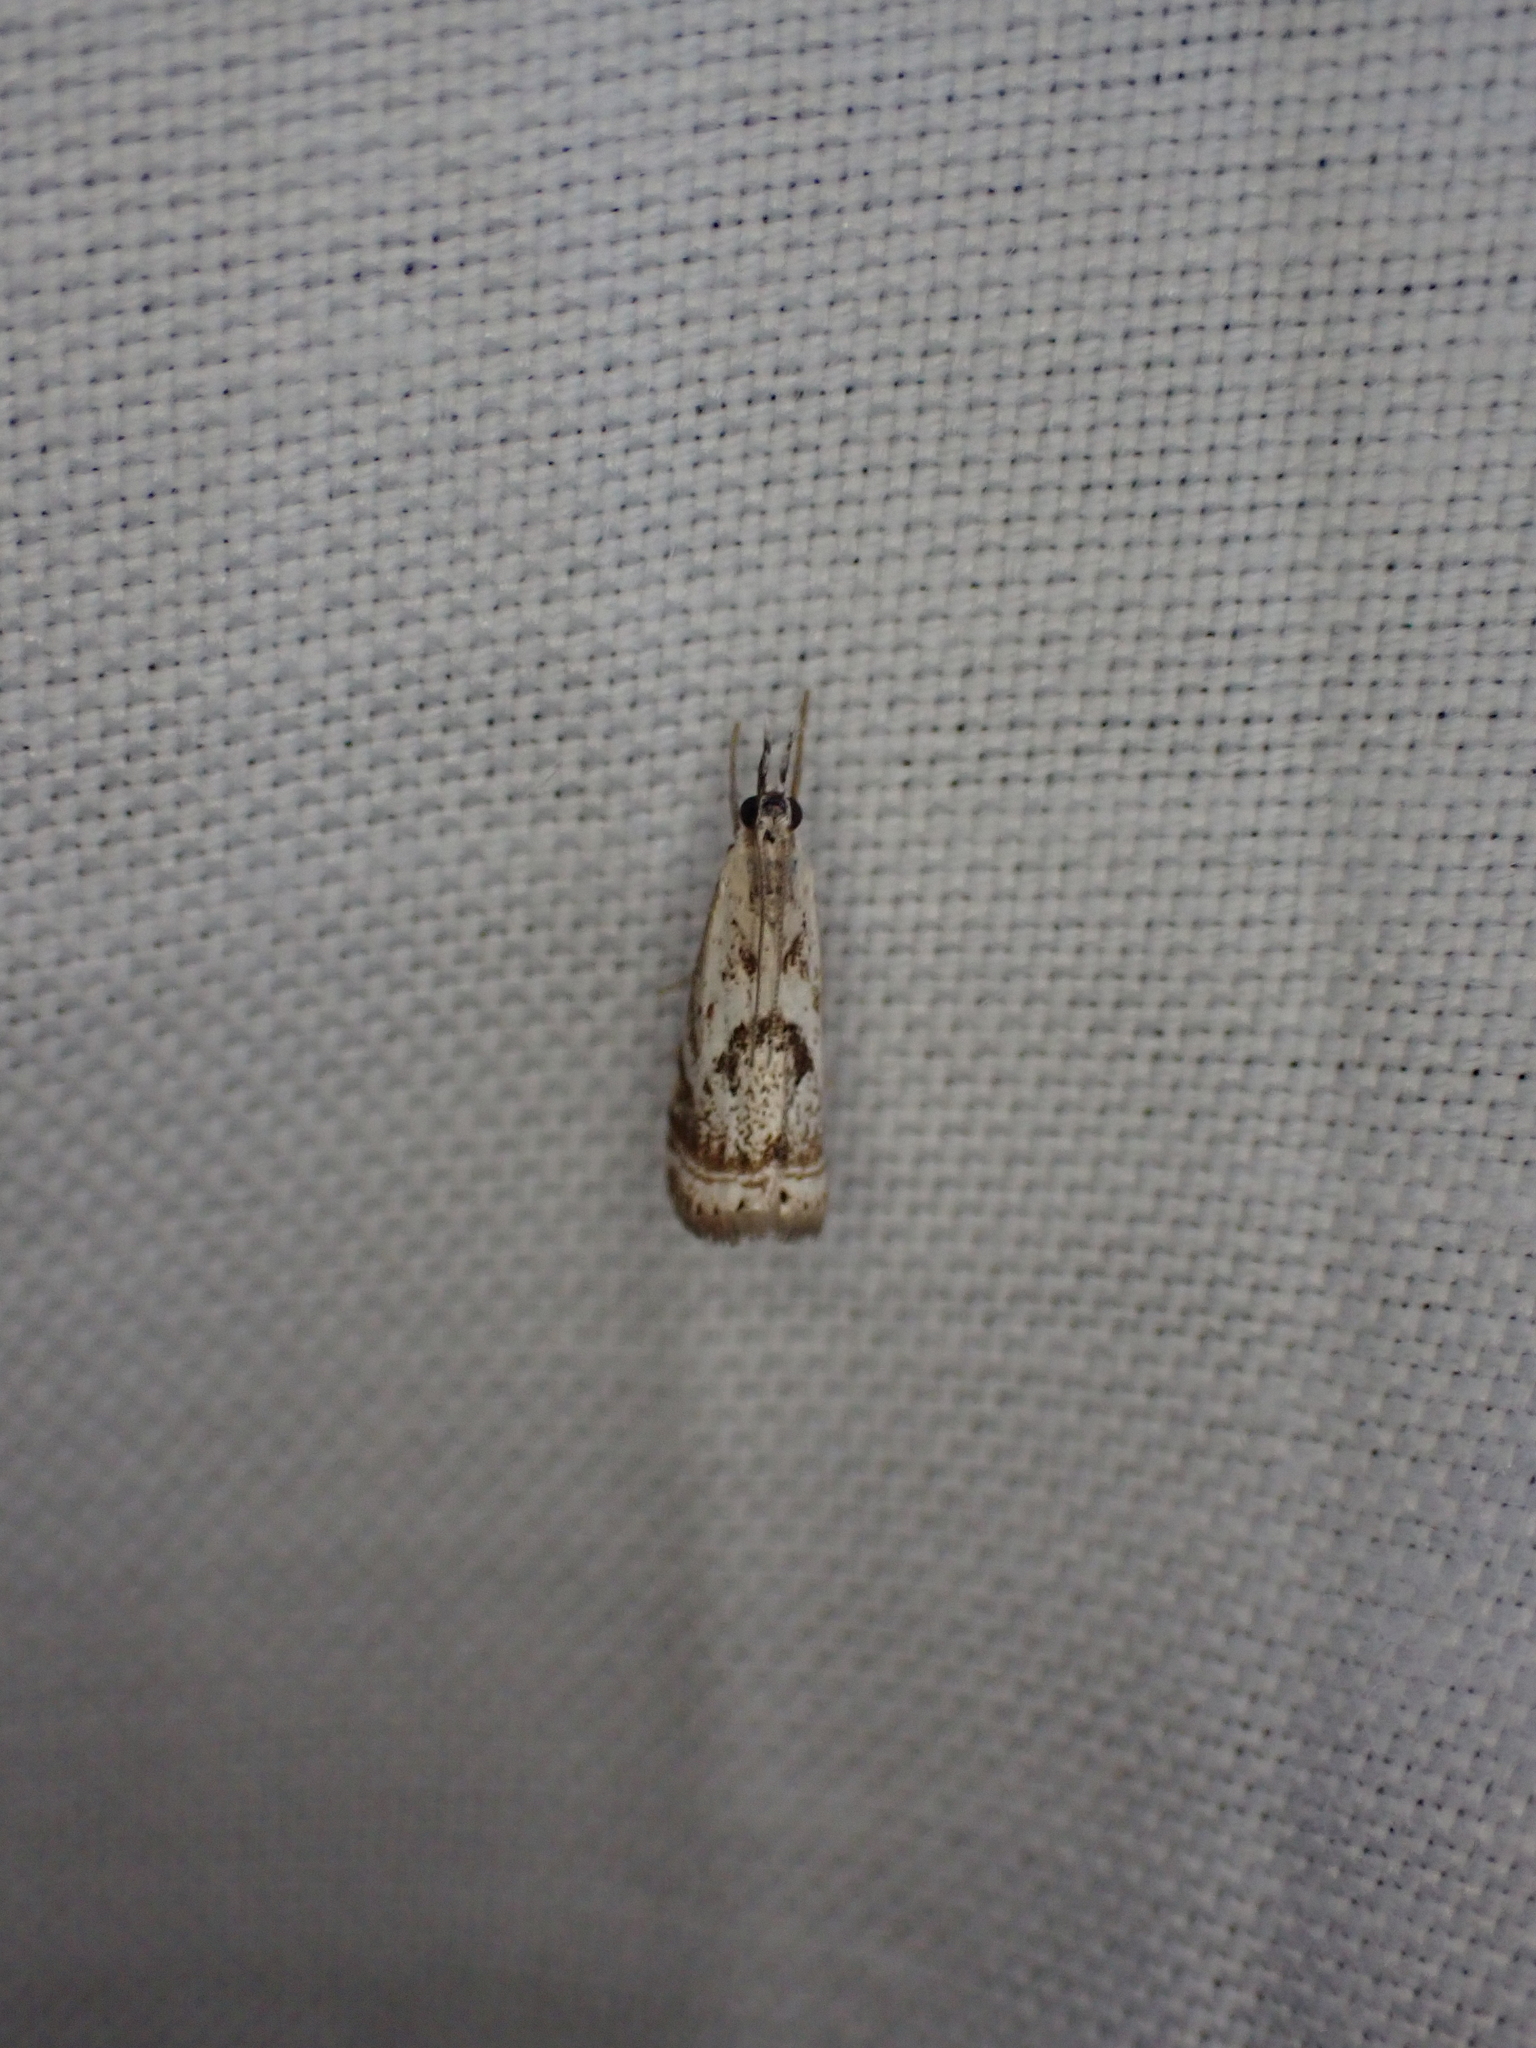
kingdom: Animalia
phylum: Arthropoda
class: Insecta
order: Lepidoptera
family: Crambidae
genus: Microcrambus
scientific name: Microcrambus elegans
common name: Elegant grass-veneer
